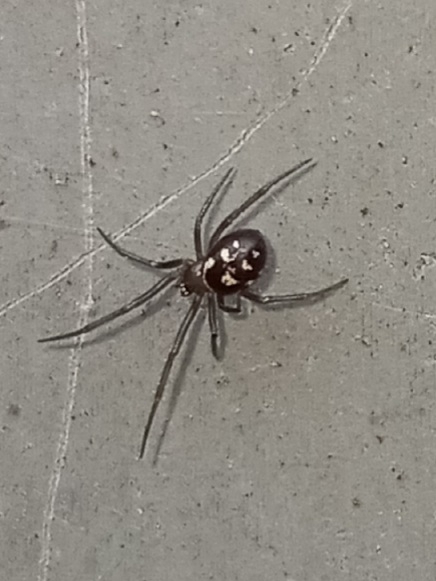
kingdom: Animalia
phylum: Arthropoda
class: Arachnida
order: Araneae
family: Theridiidae
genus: Steatoda
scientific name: Steatoda grossa
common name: False black widow
